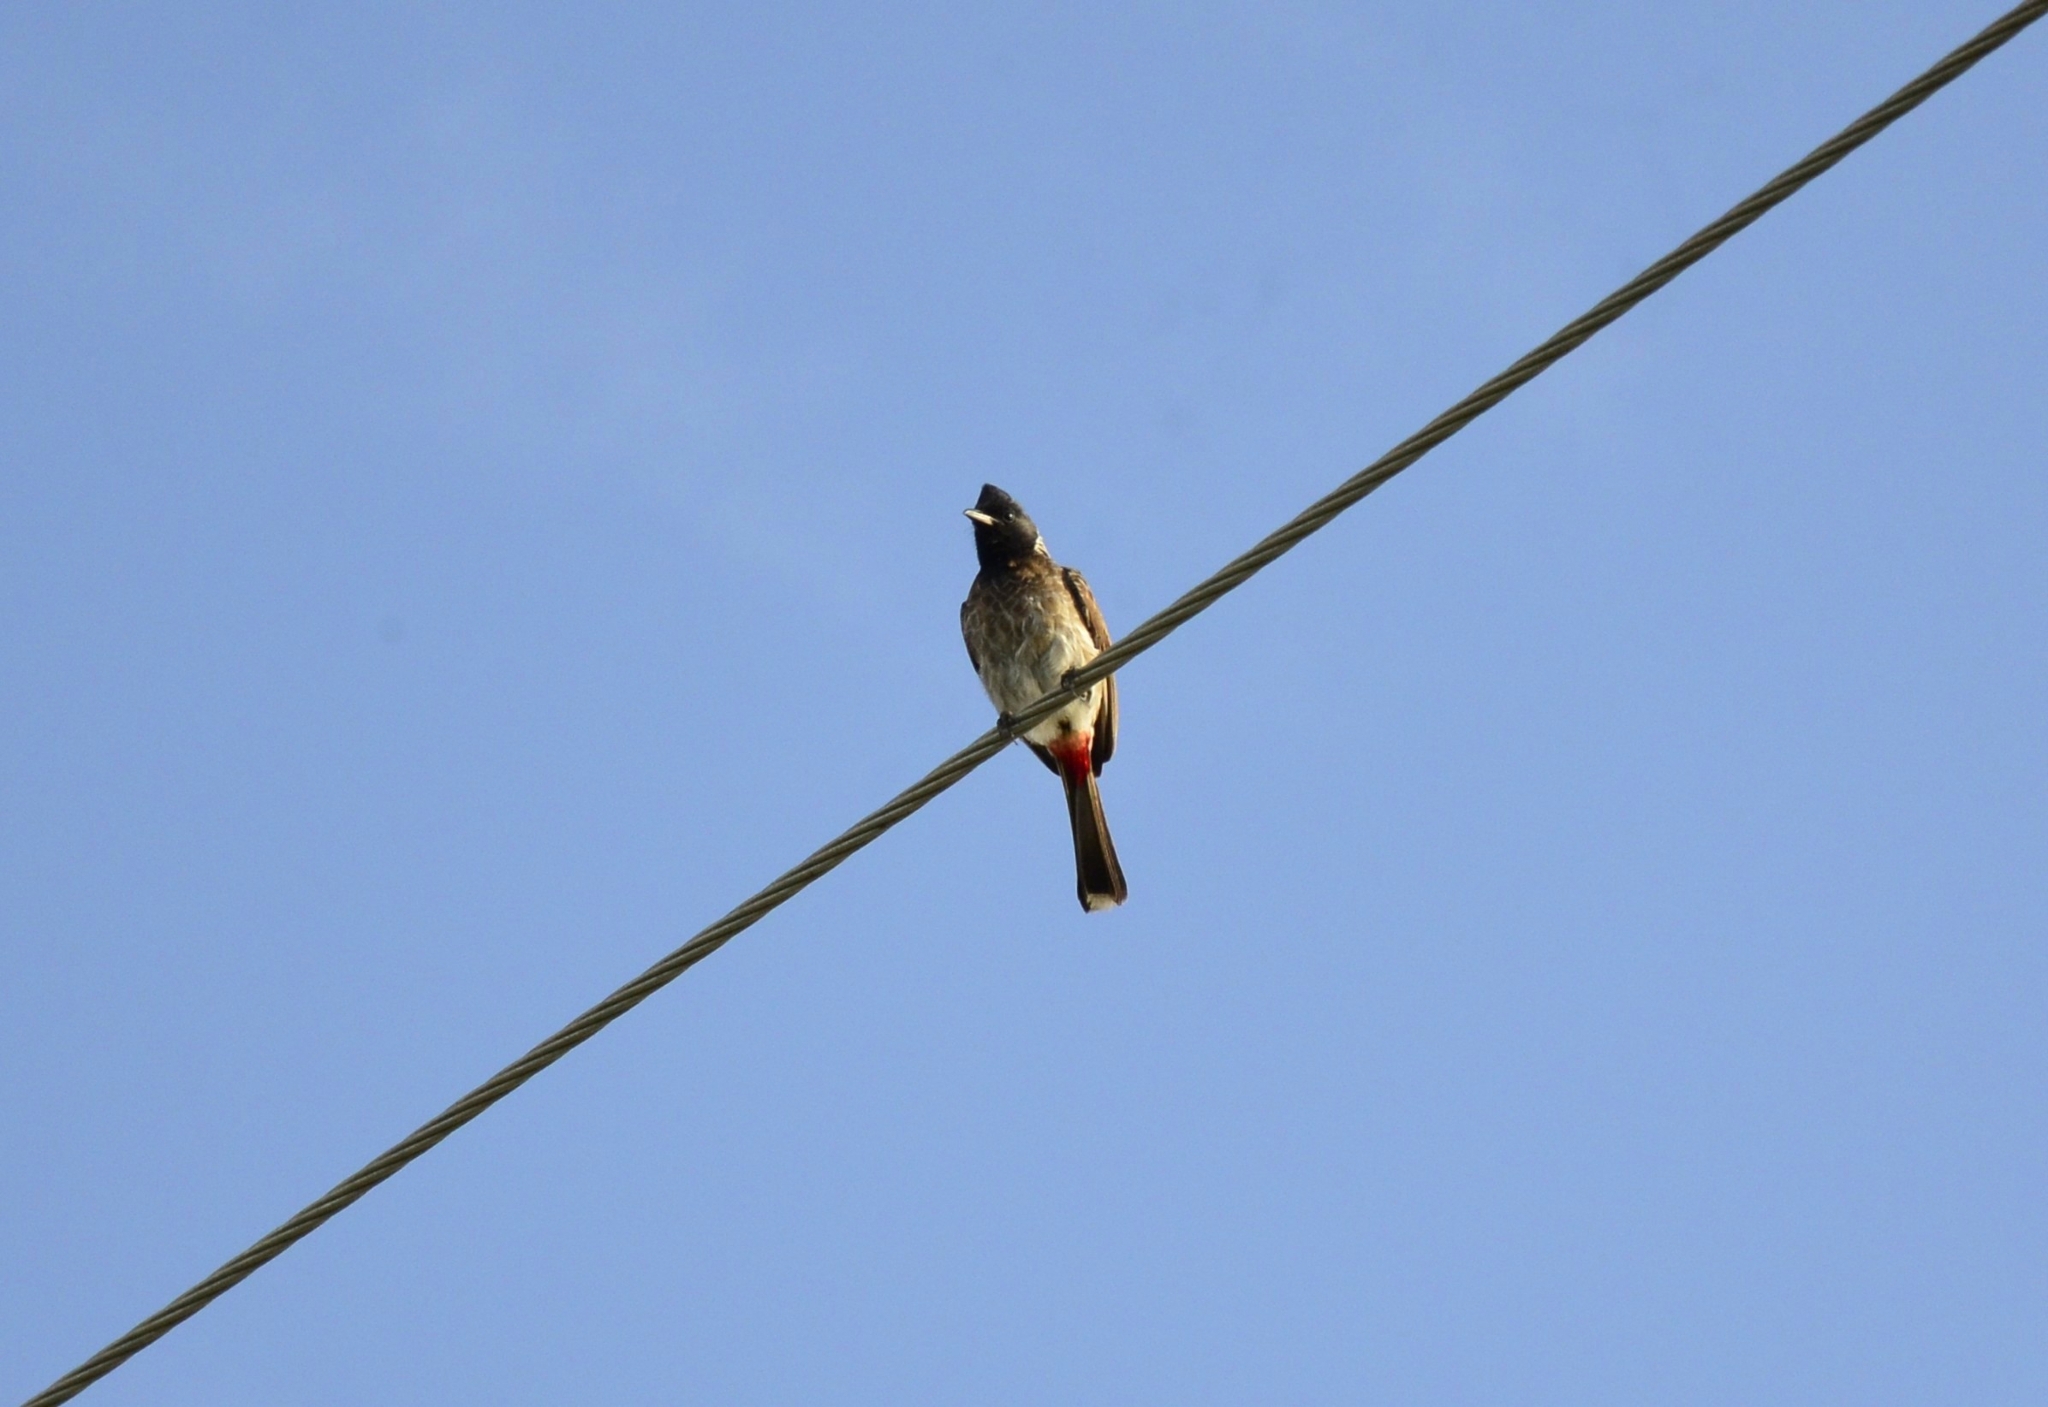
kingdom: Animalia
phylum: Chordata
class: Aves
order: Passeriformes
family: Pycnonotidae
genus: Pycnonotus
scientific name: Pycnonotus cafer
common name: Red-vented bulbul
